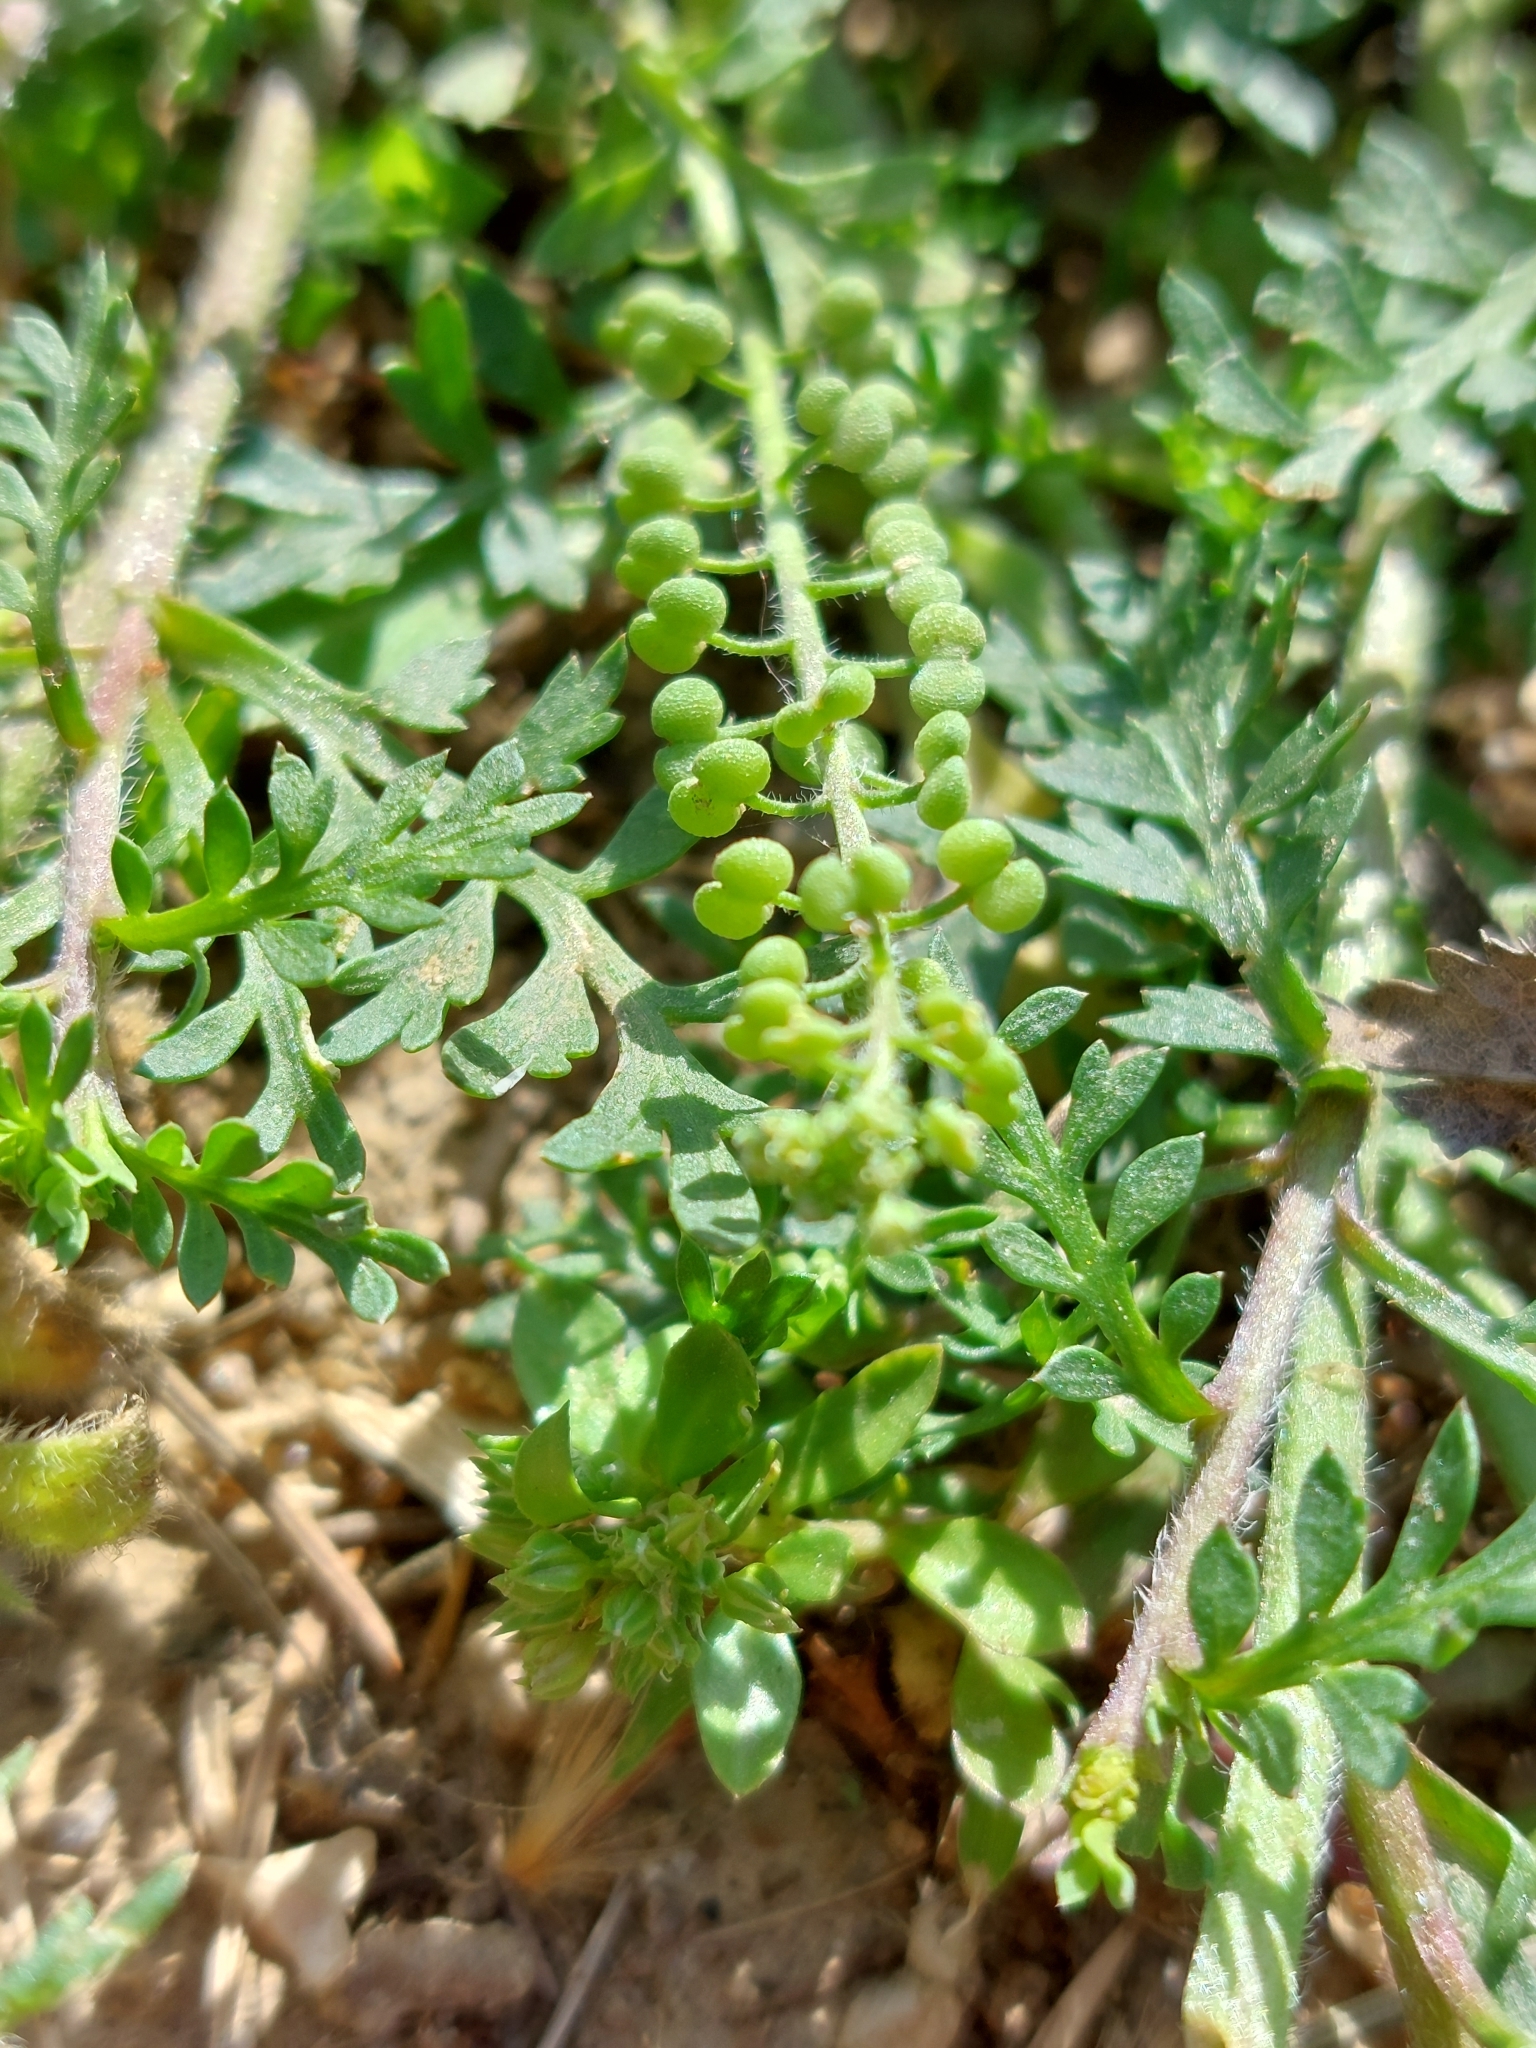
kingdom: Plantae
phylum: Tracheophyta
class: Magnoliopsida
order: Brassicales
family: Brassicaceae
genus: Lepidium
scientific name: Lepidium didymum
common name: Lesser swinecress
